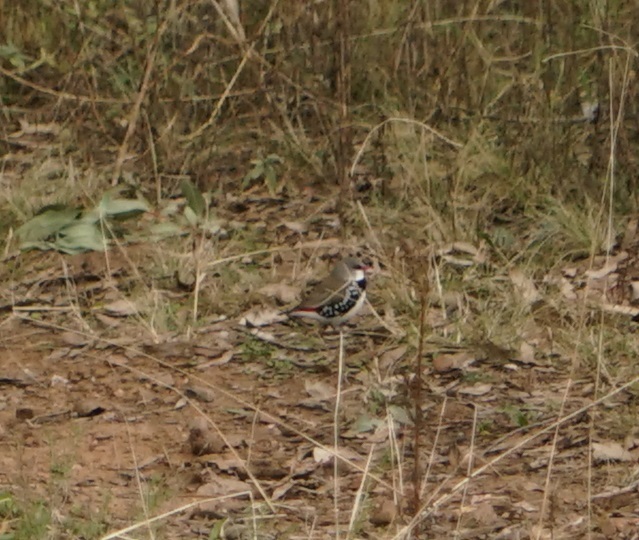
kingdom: Animalia
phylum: Chordata
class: Aves
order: Passeriformes
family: Estrildidae
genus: Stagonopleura
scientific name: Stagonopleura guttata
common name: Diamond firetail
